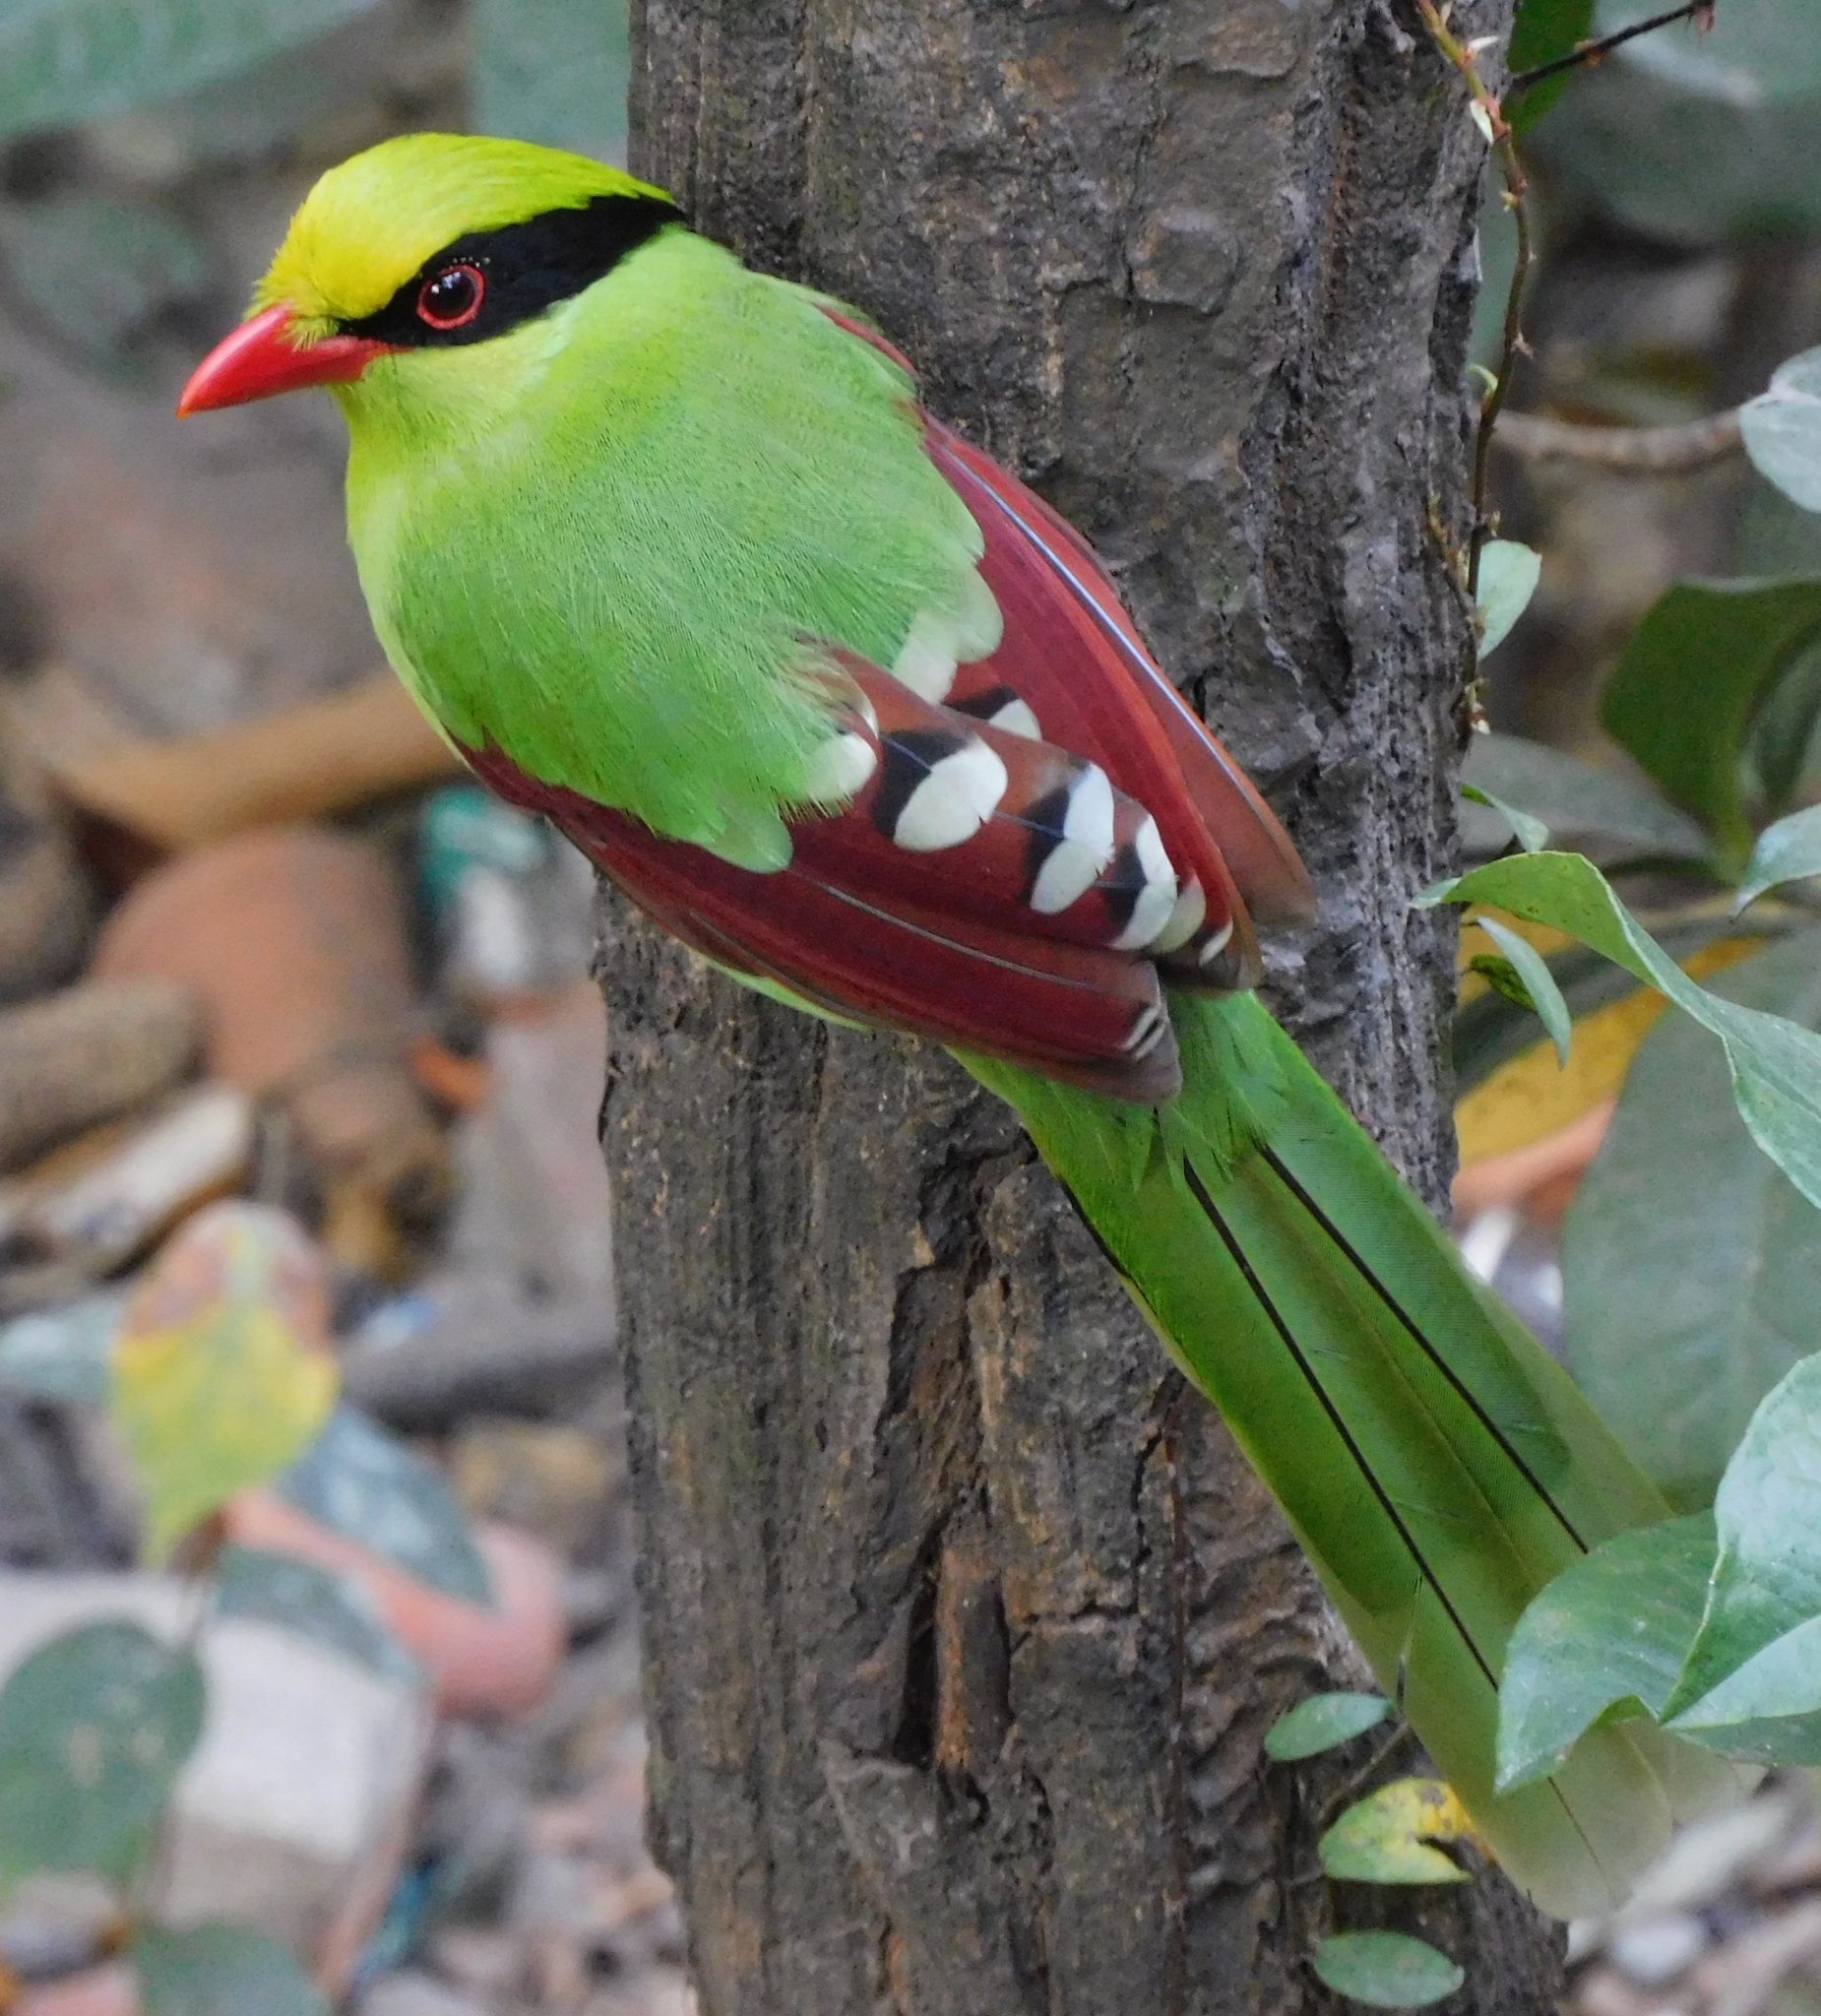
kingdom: Animalia
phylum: Chordata
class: Aves
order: Passeriformes
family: Corvidae
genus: Cissa
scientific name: Cissa chinensis
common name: Common green magpie
